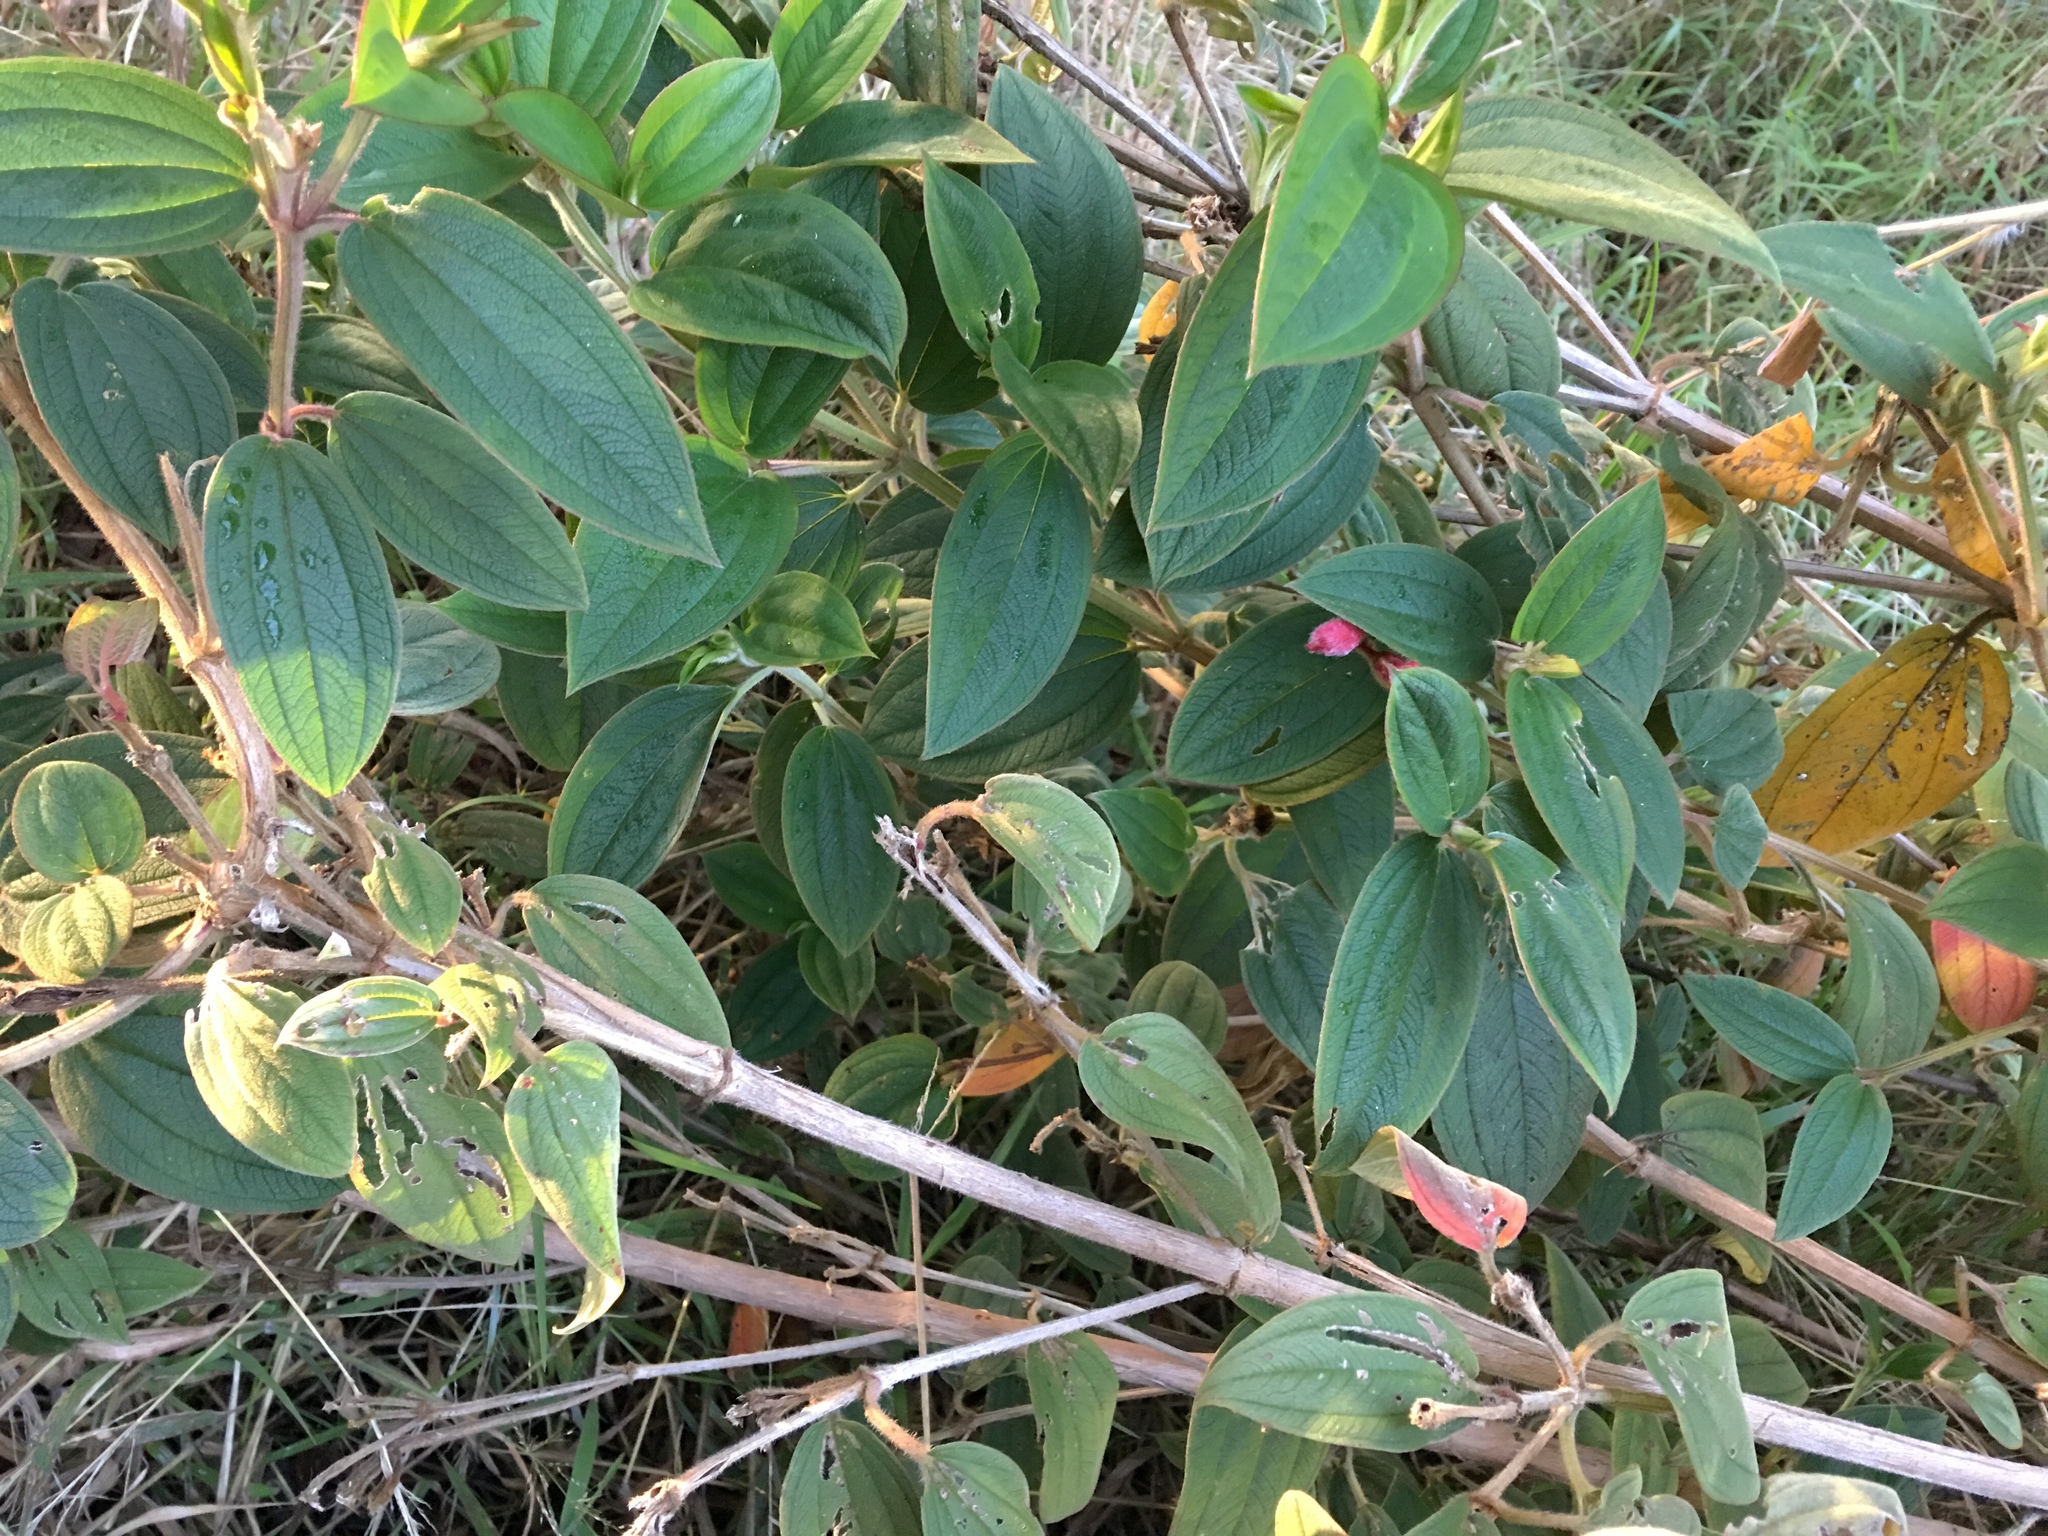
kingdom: Plantae
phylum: Tracheophyta
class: Magnoliopsida
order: Myrtales
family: Melastomataceae
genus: Pleroma
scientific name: Pleroma urvilleanum
